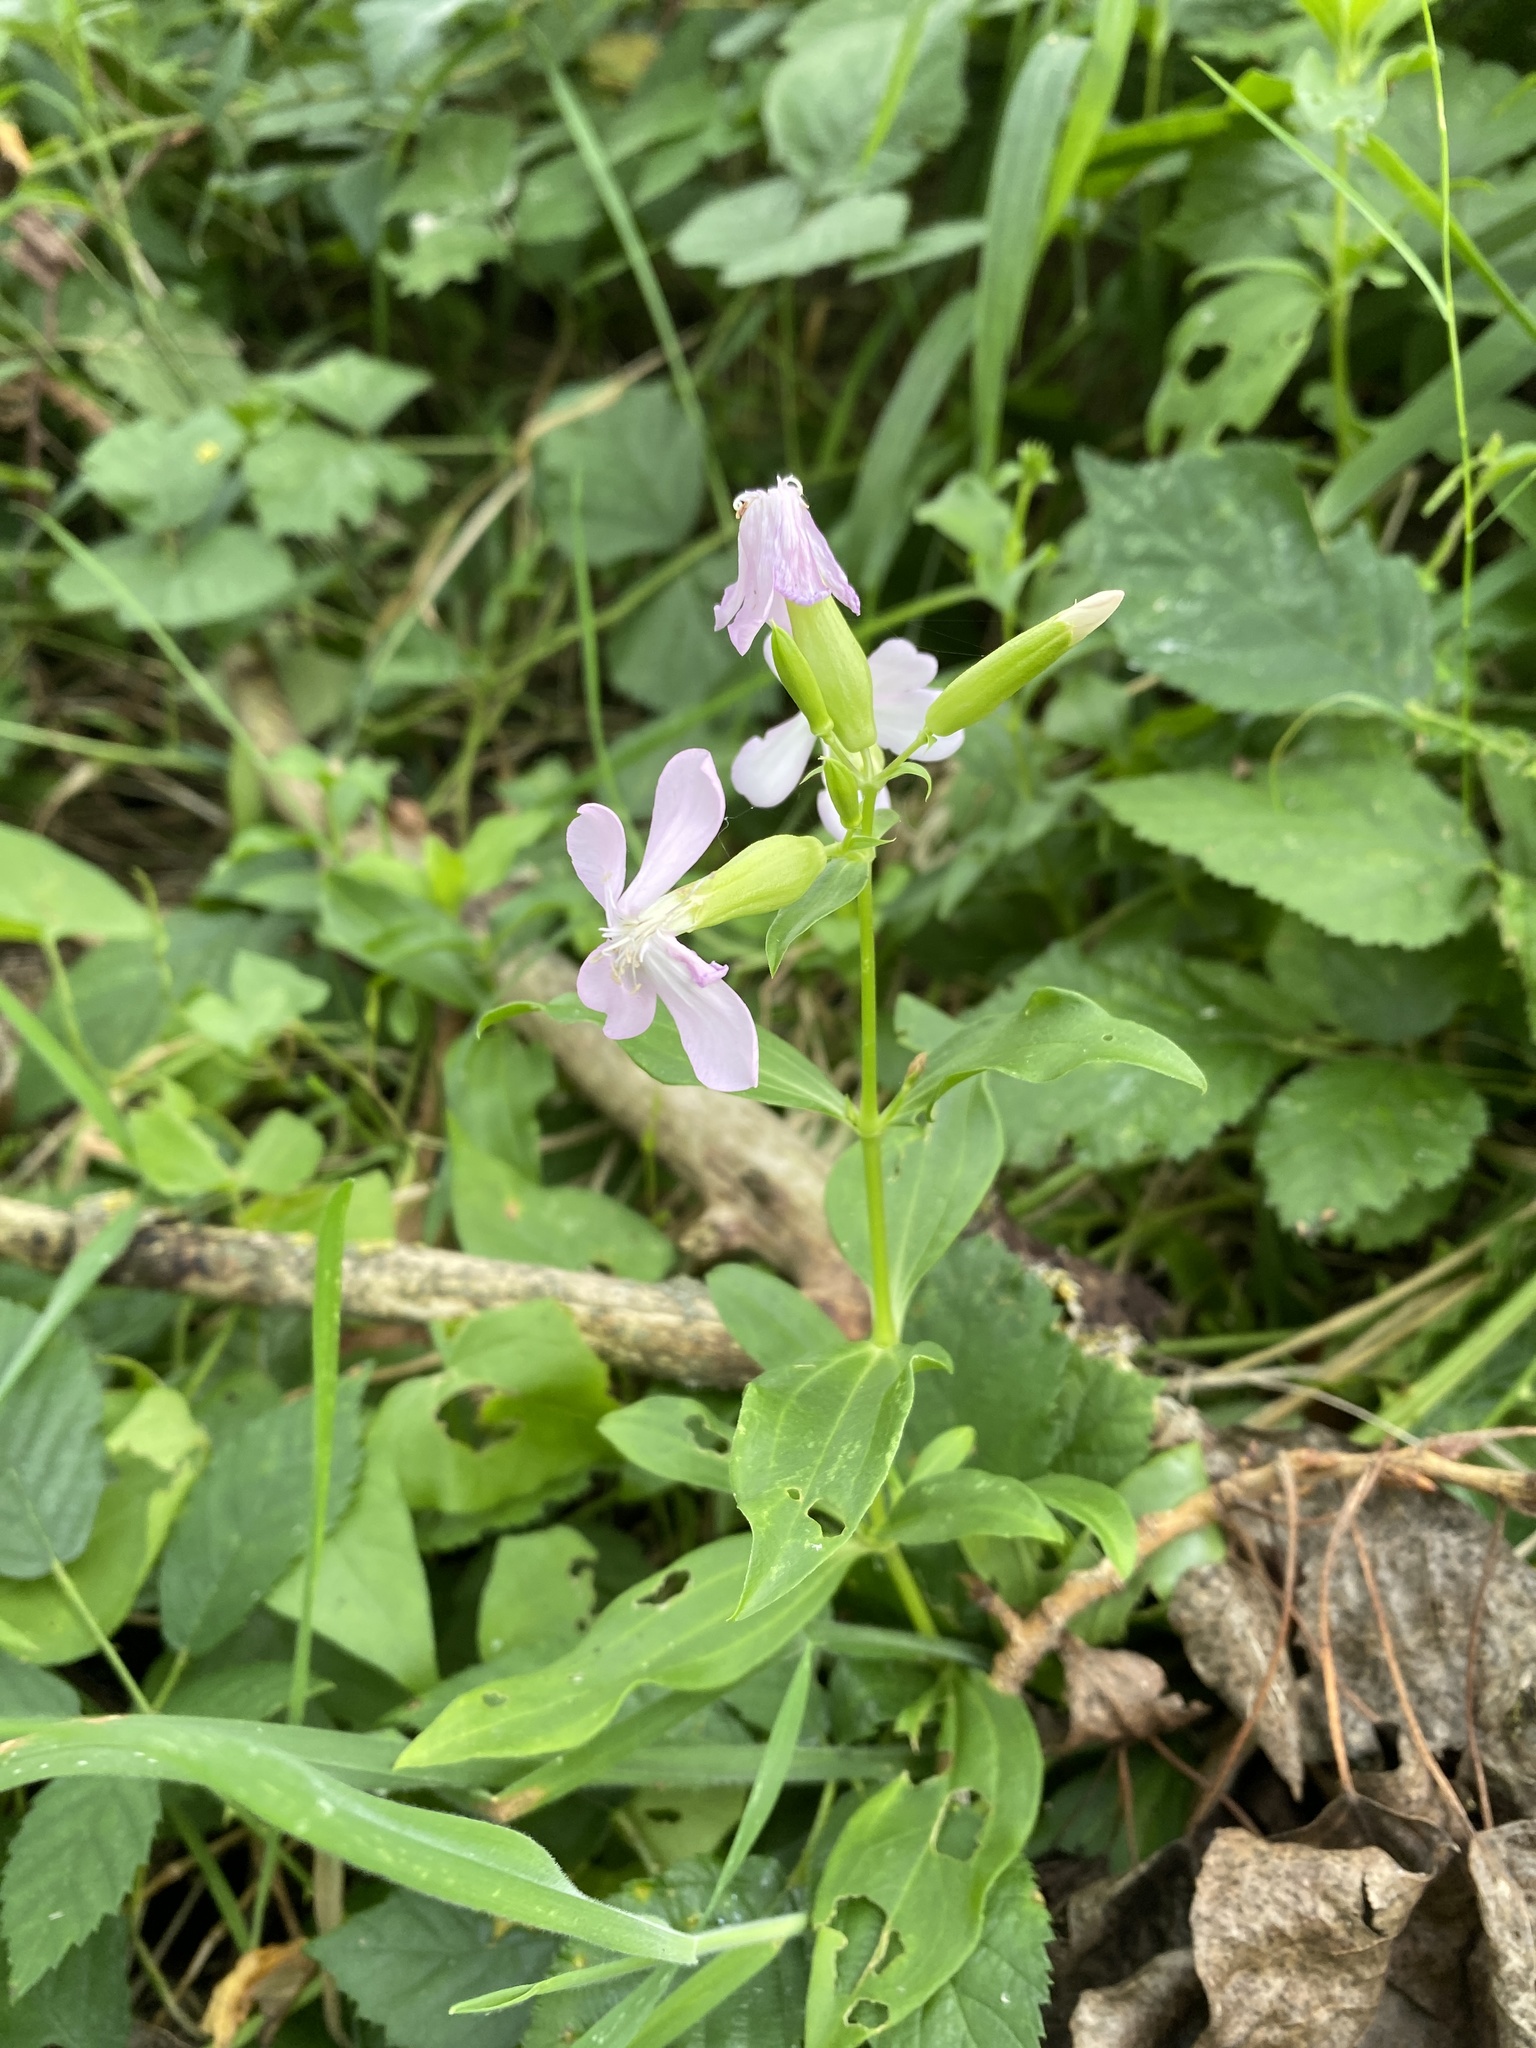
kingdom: Plantae
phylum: Tracheophyta
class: Magnoliopsida
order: Caryophyllales
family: Caryophyllaceae
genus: Saponaria
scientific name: Saponaria officinalis
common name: Soapwort
